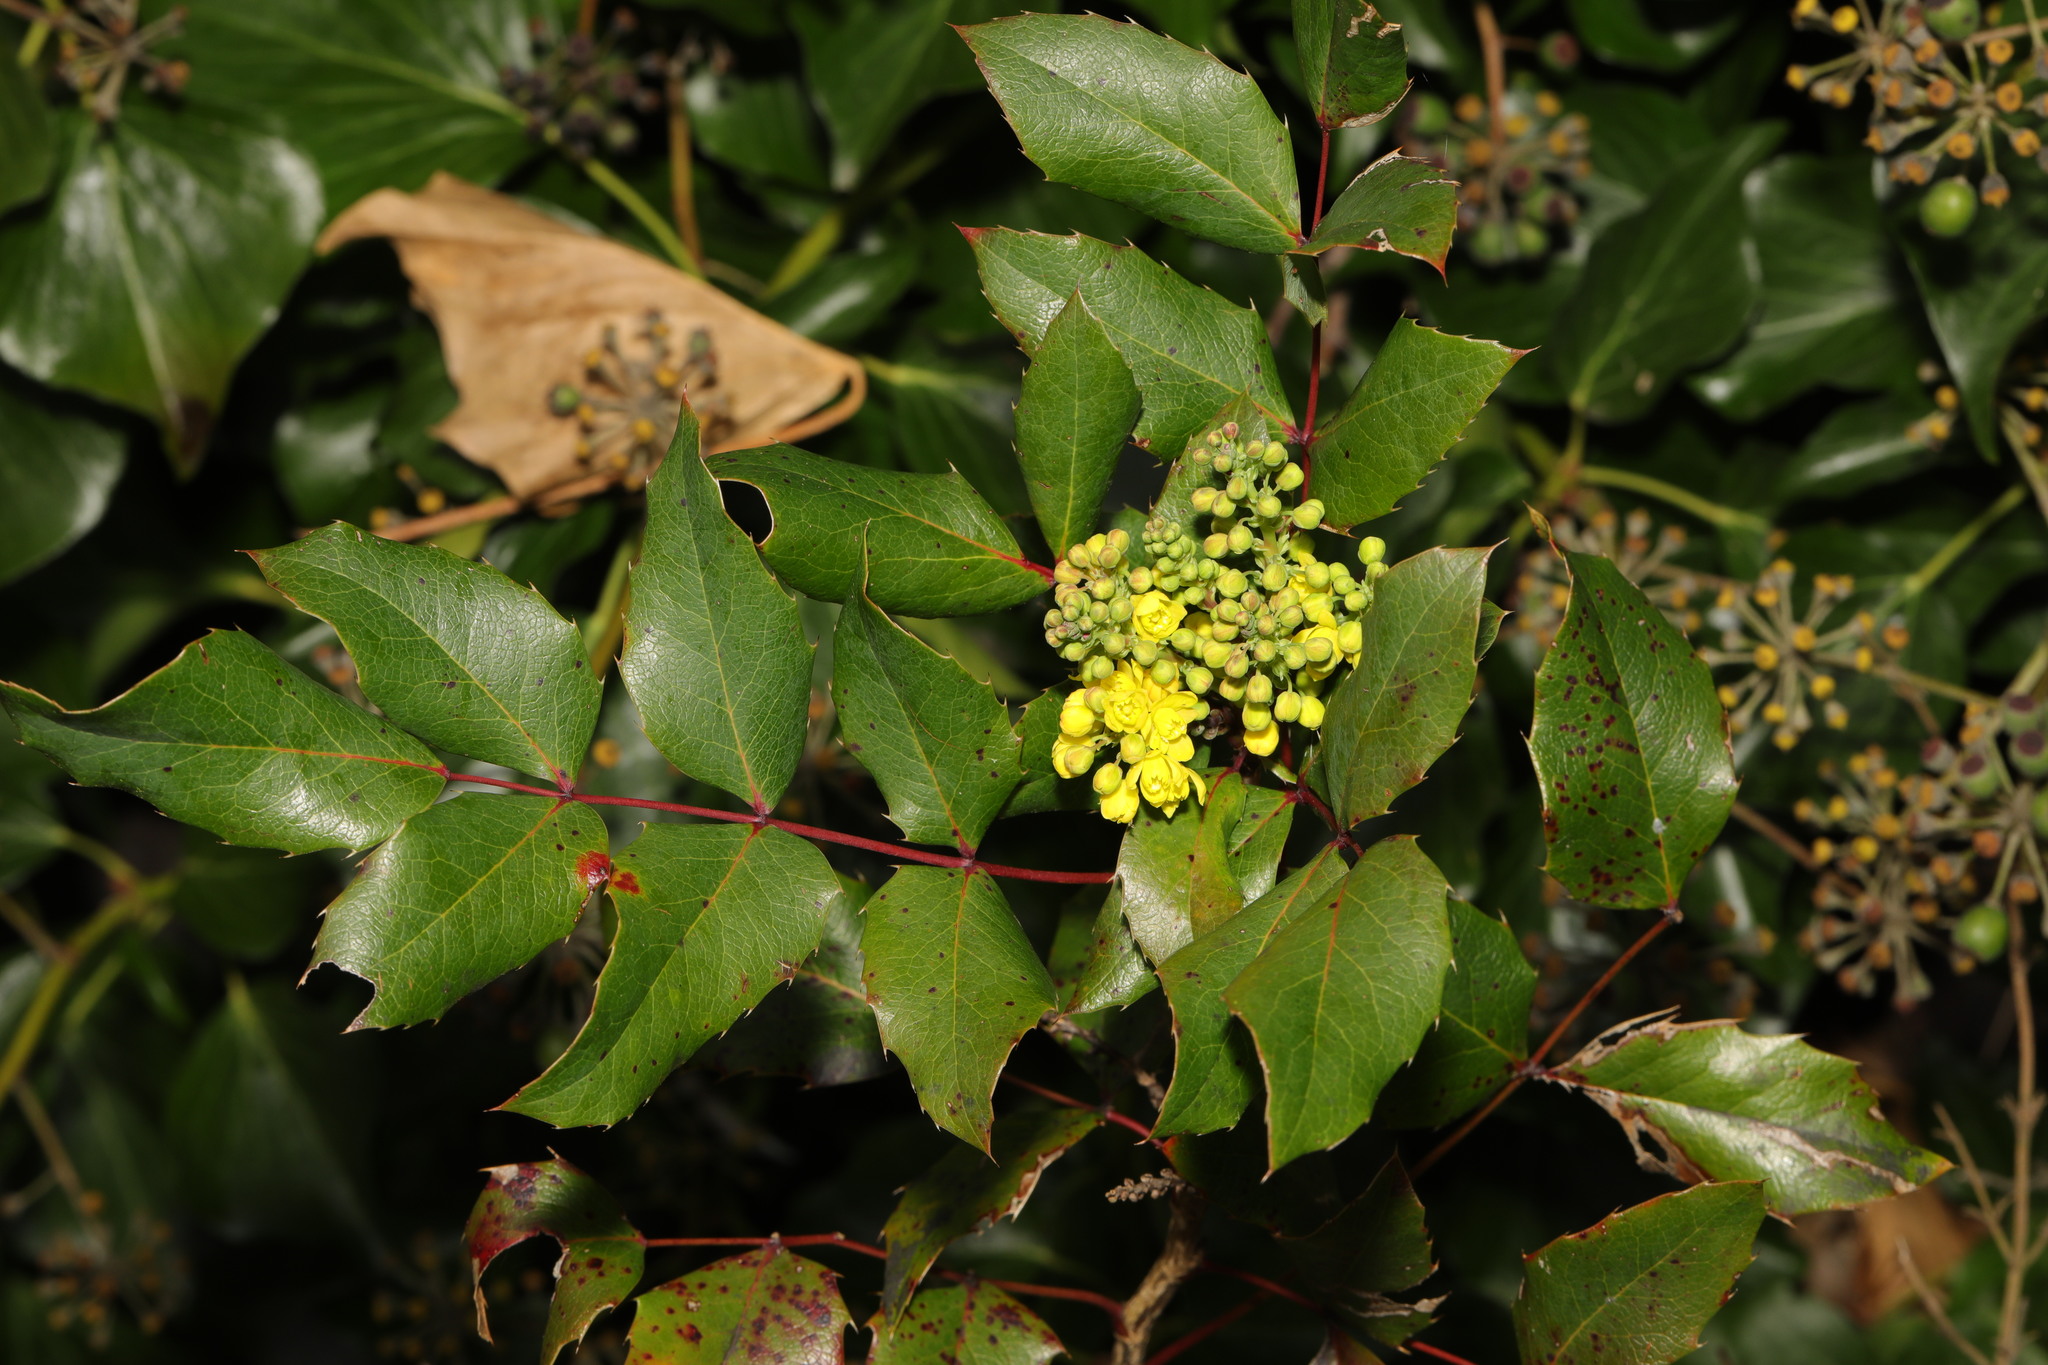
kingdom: Plantae
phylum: Tracheophyta
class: Magnoliopsida
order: Ranunculales
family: Berberidaceae
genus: Mahonia
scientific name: Mahonia aquifolium
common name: Oregon-grape
